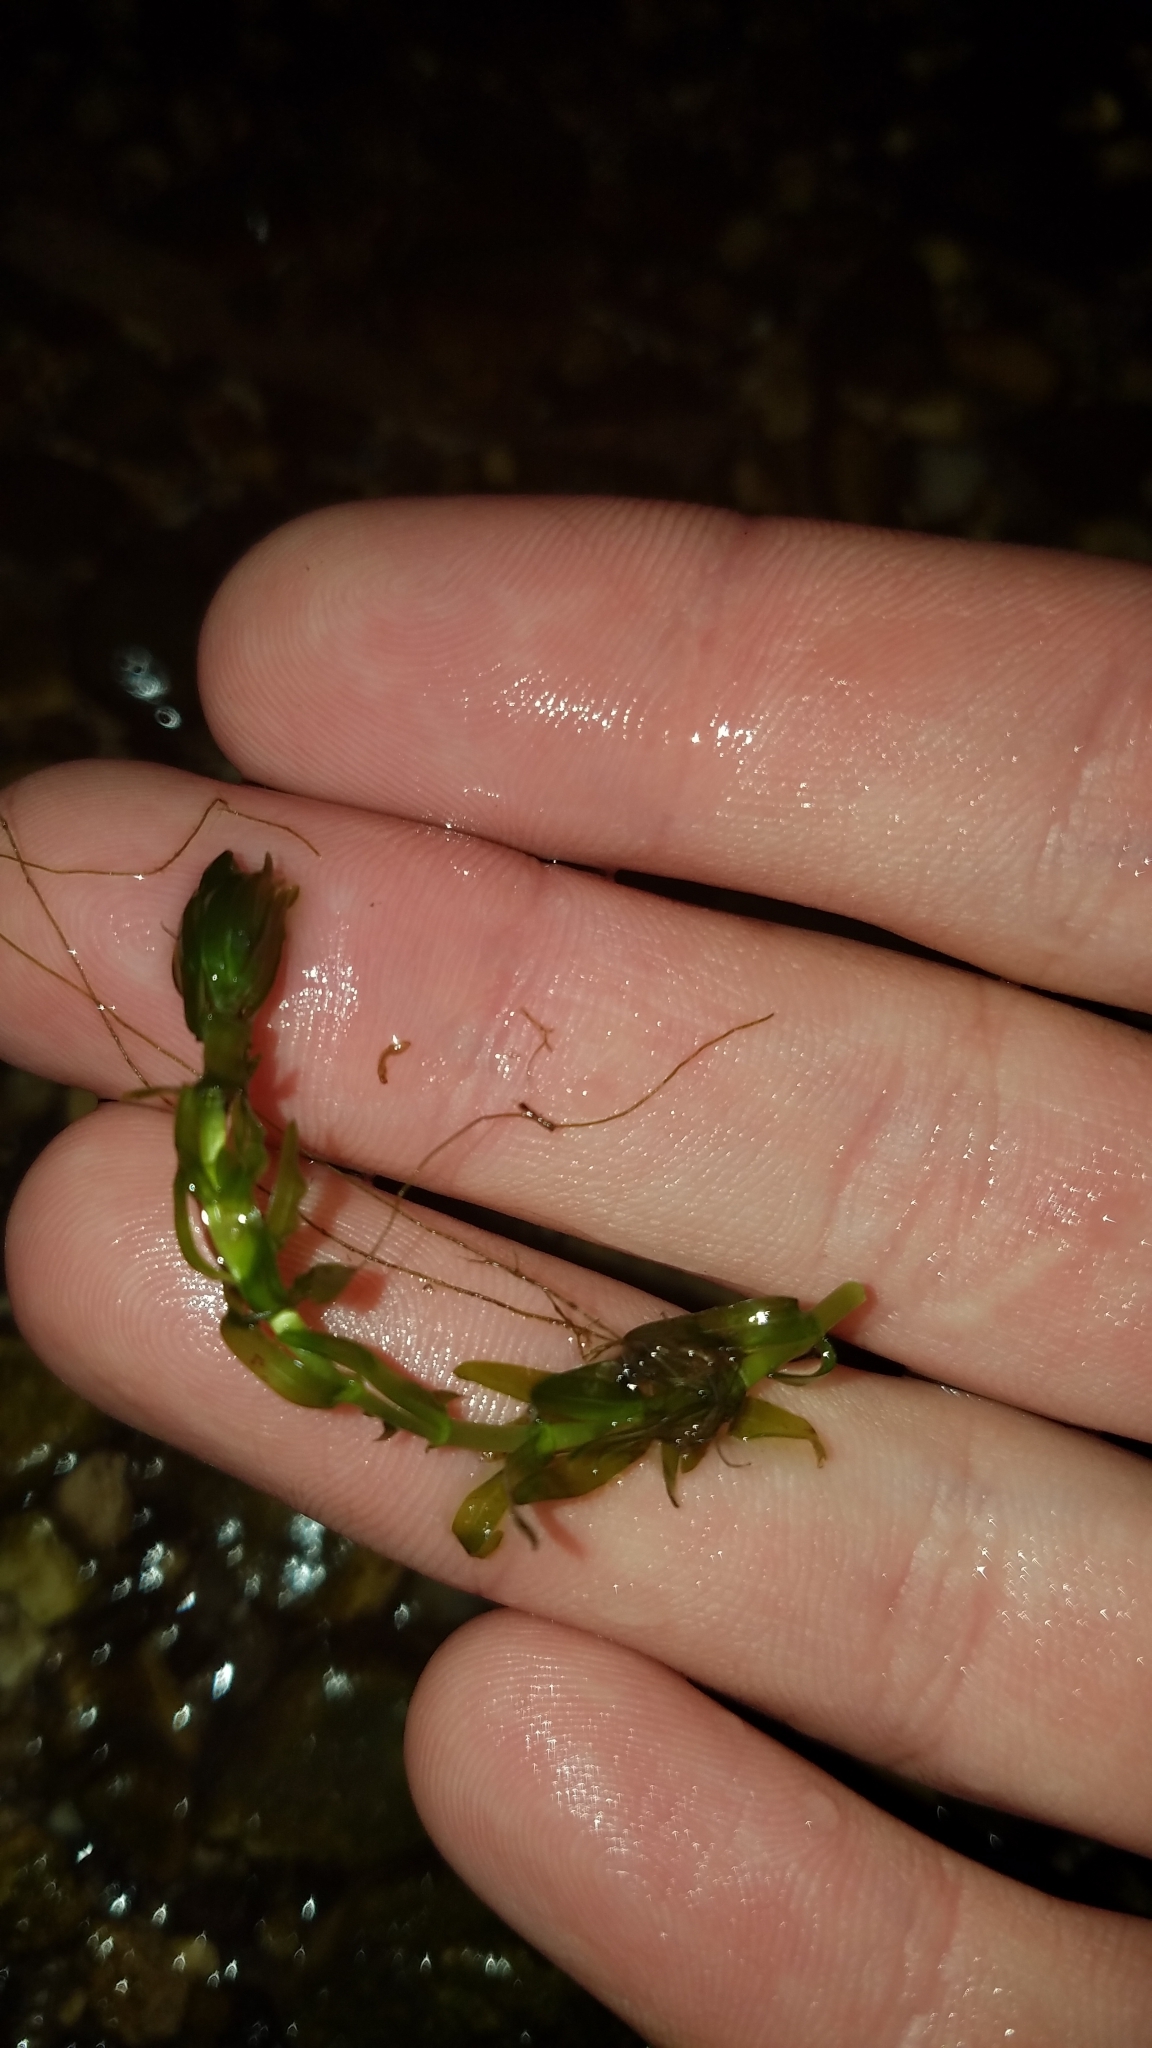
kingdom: Plantae
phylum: Tracheophyta
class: Liliopsida
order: Alismatales
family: Hydrocharitaceae
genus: Elodea
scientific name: Elodea canadensis
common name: Canadian waterweed
